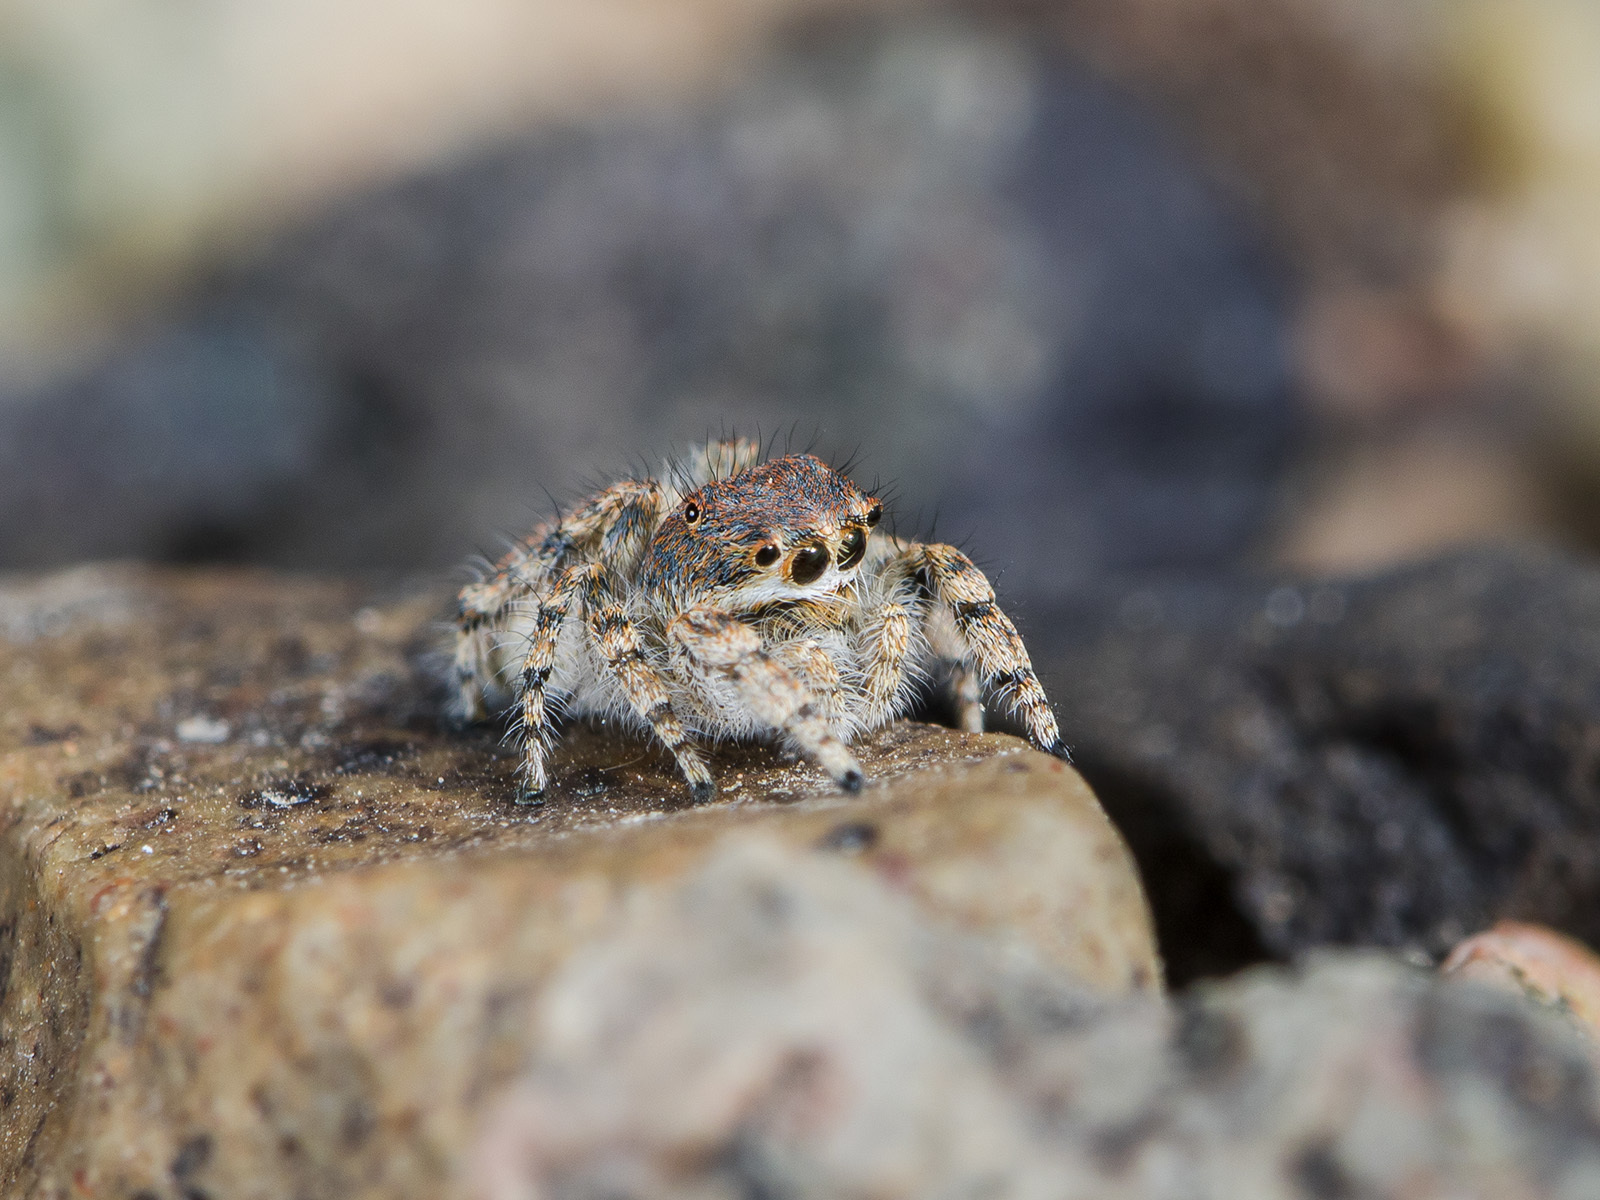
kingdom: Animalia
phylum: Arthropoda
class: Arachnida
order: Araneae
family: Salticidae
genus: Yllenus
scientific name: Yllenus zyuzini
